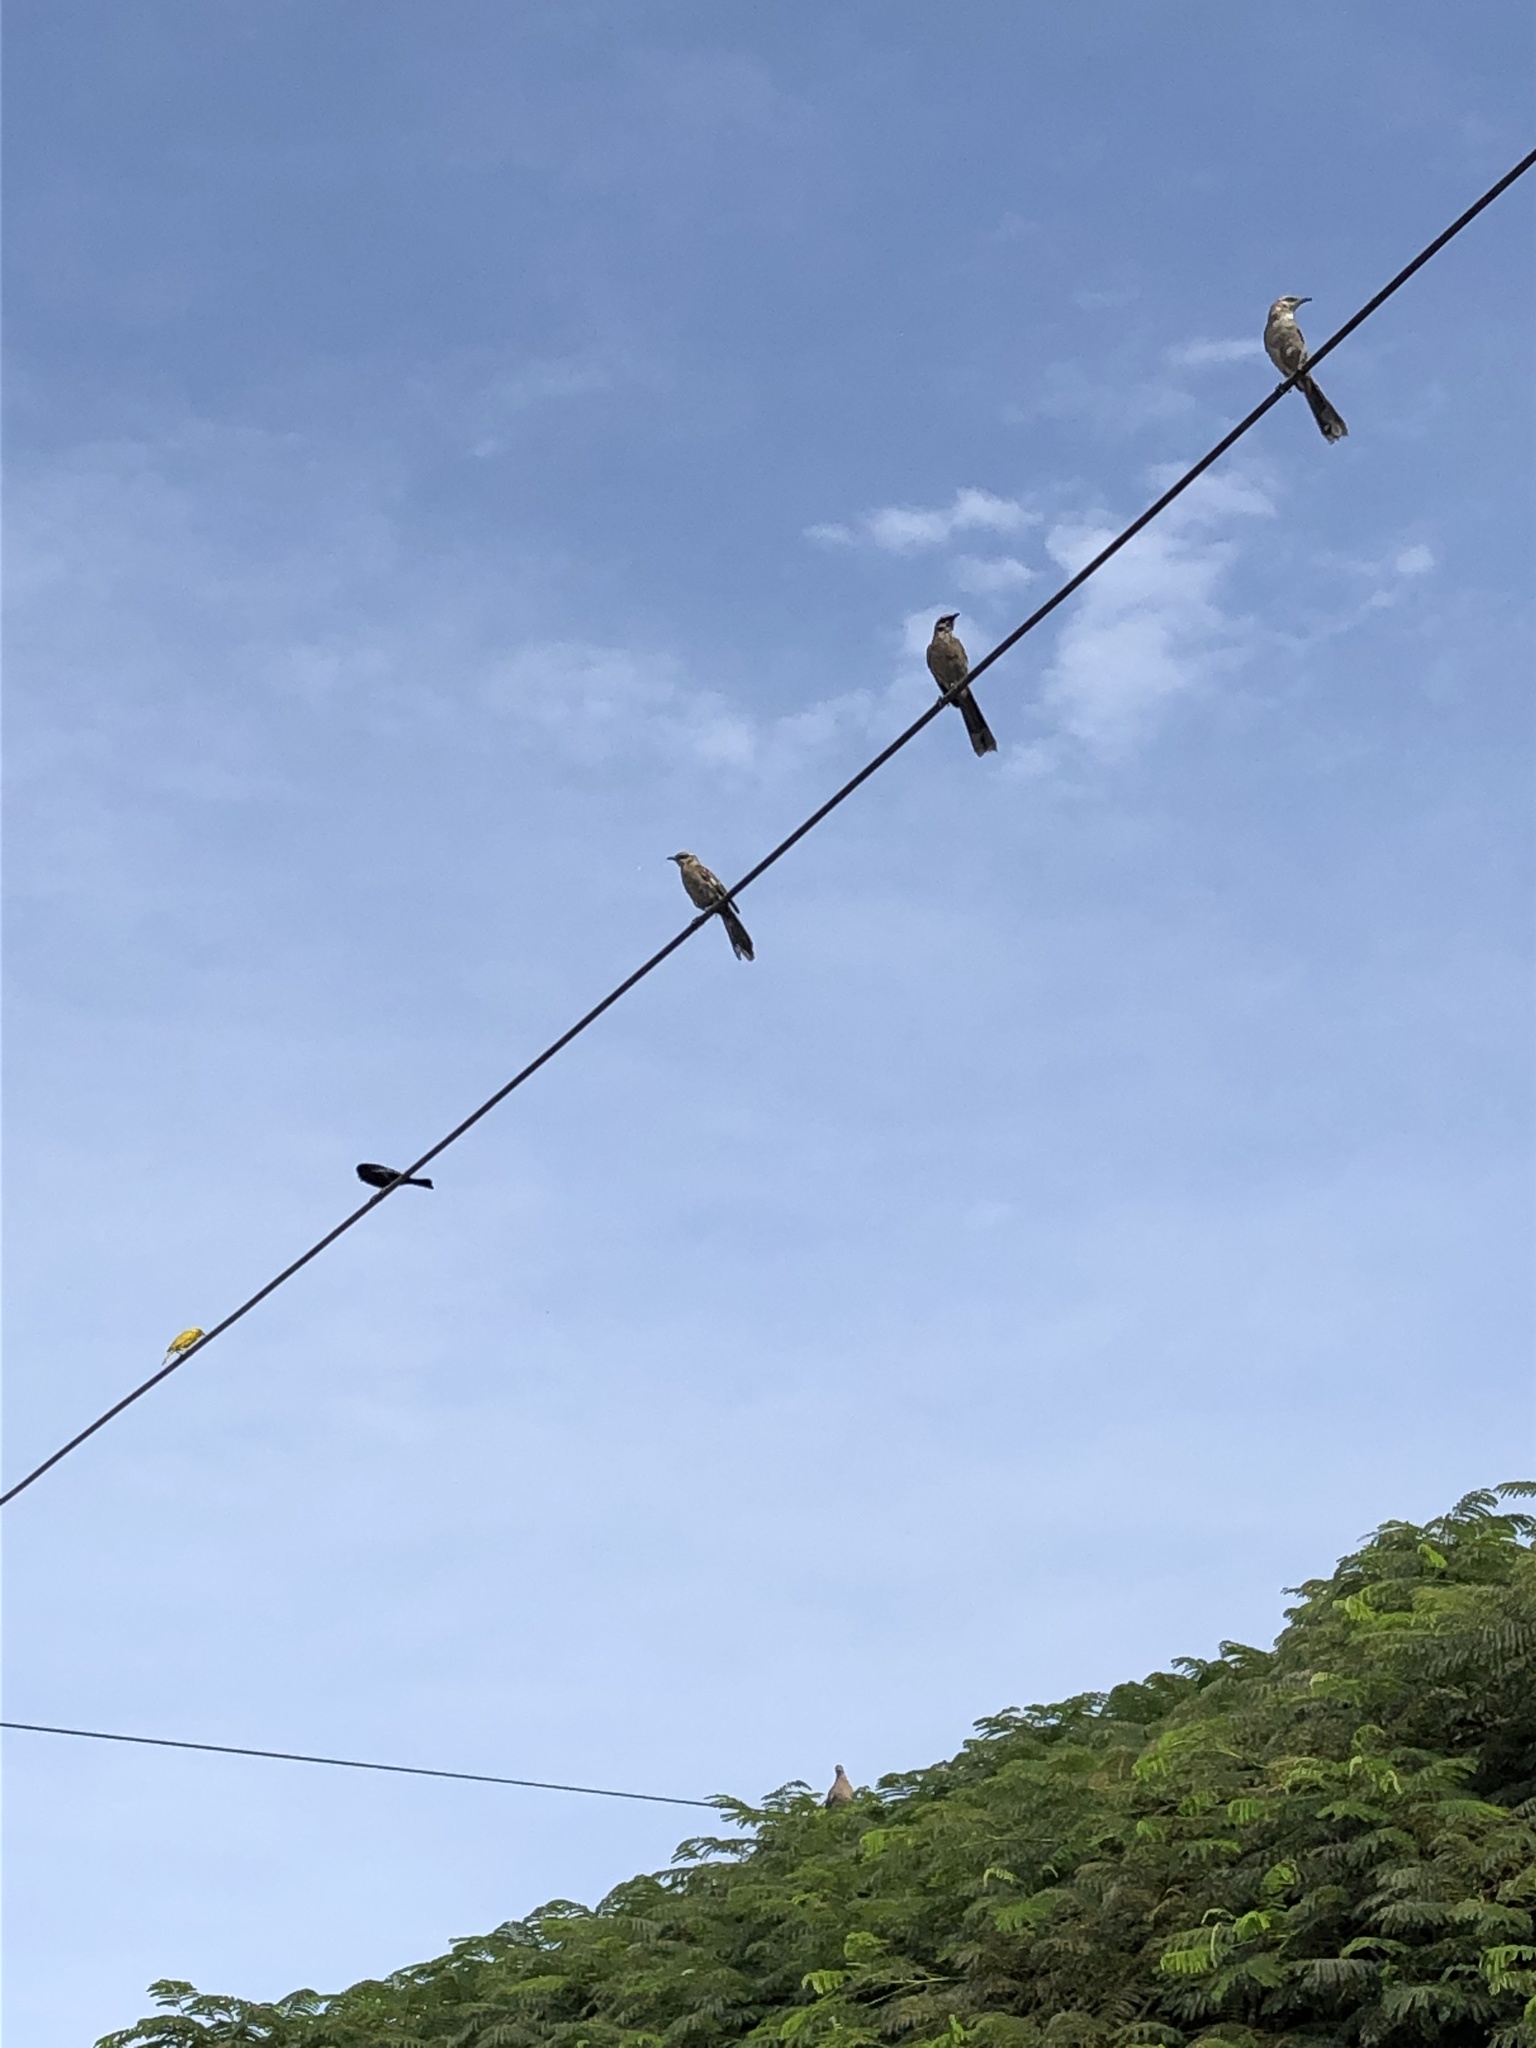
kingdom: Animalia
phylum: Chordata
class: Aves
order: Passeriformes
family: Icteridae
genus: Dives
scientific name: Dives warczewiczi
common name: Scrub blackbird
